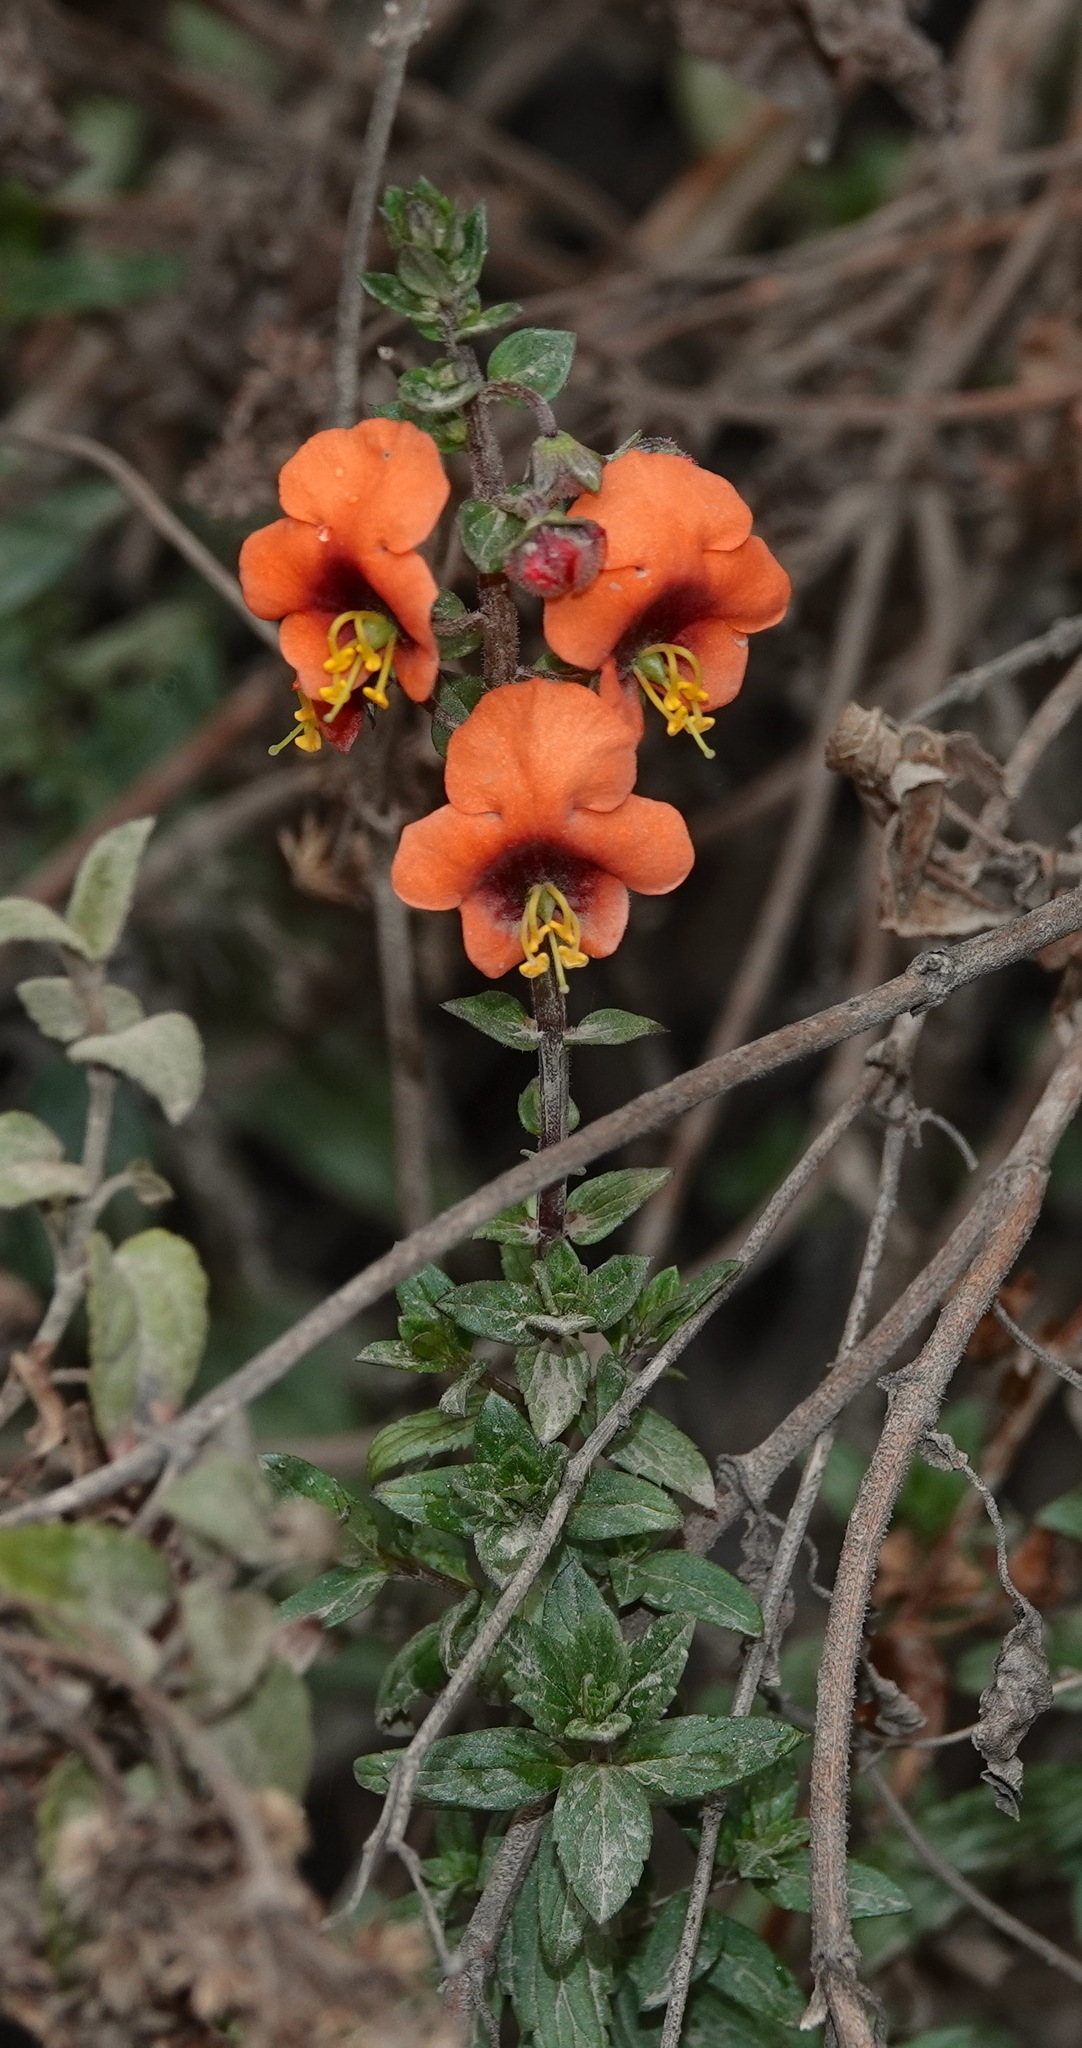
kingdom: Plantae
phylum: Tracheophyta
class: Magnoliopsida
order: Lamiales
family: Scrophulariaceae
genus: Alonsoa
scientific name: Alonsoa meridionalis
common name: Maskflower
